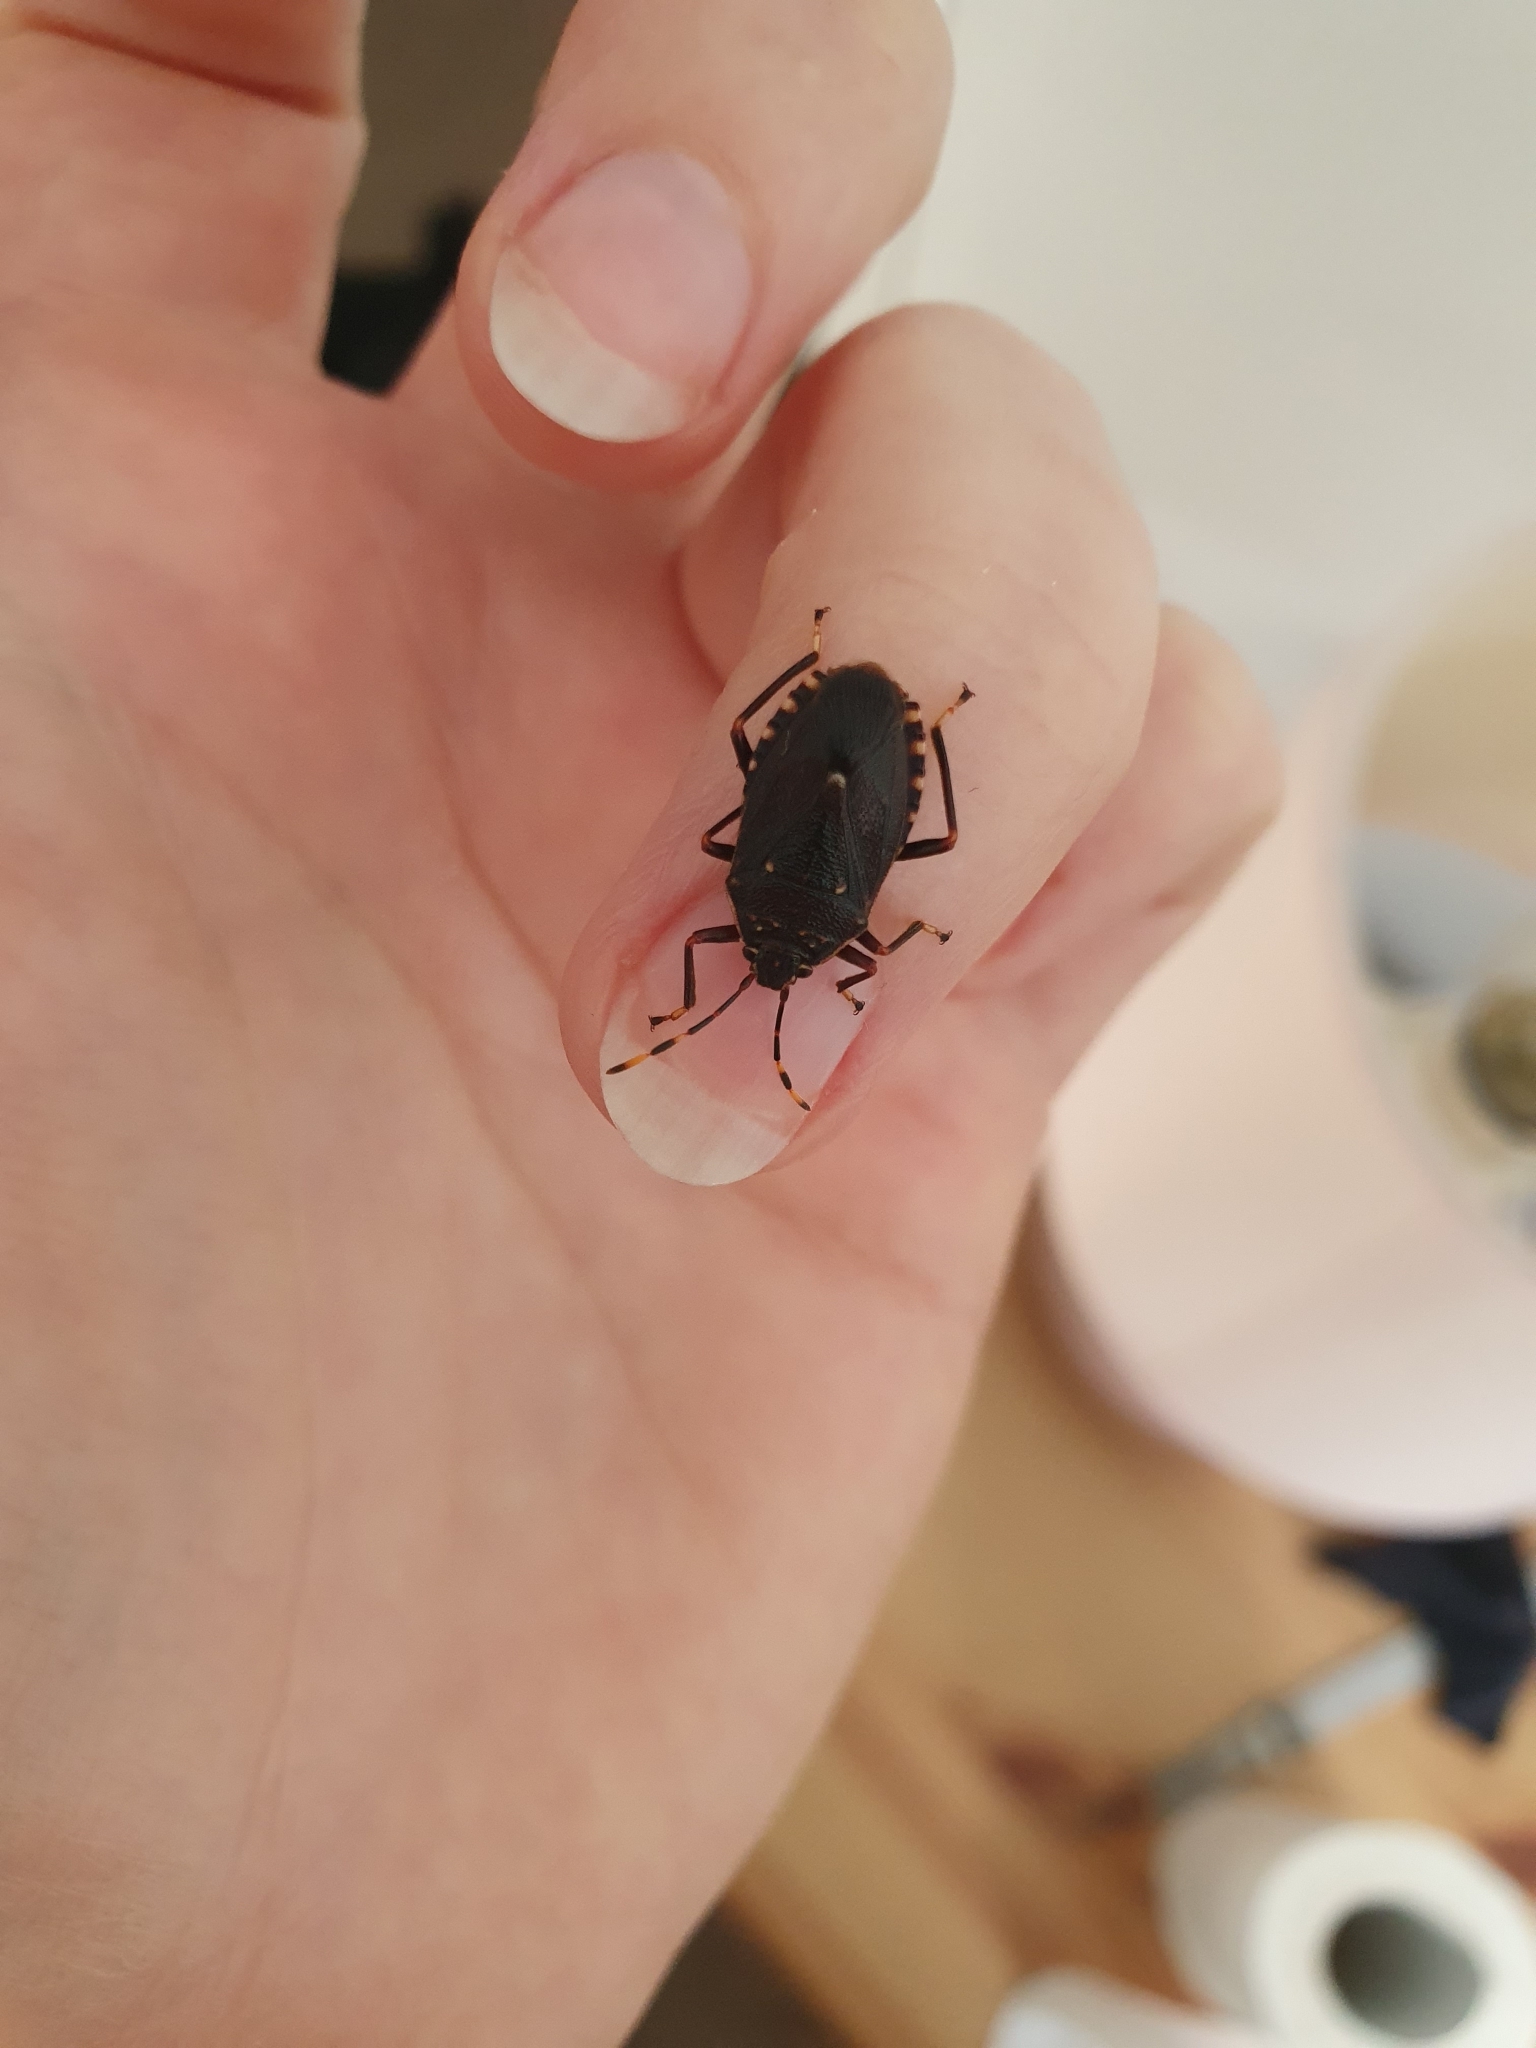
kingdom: Animalia
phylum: Arthropoda
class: Insecta
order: Hemiptera
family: Pentatomidae
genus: Notius
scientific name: Notius
